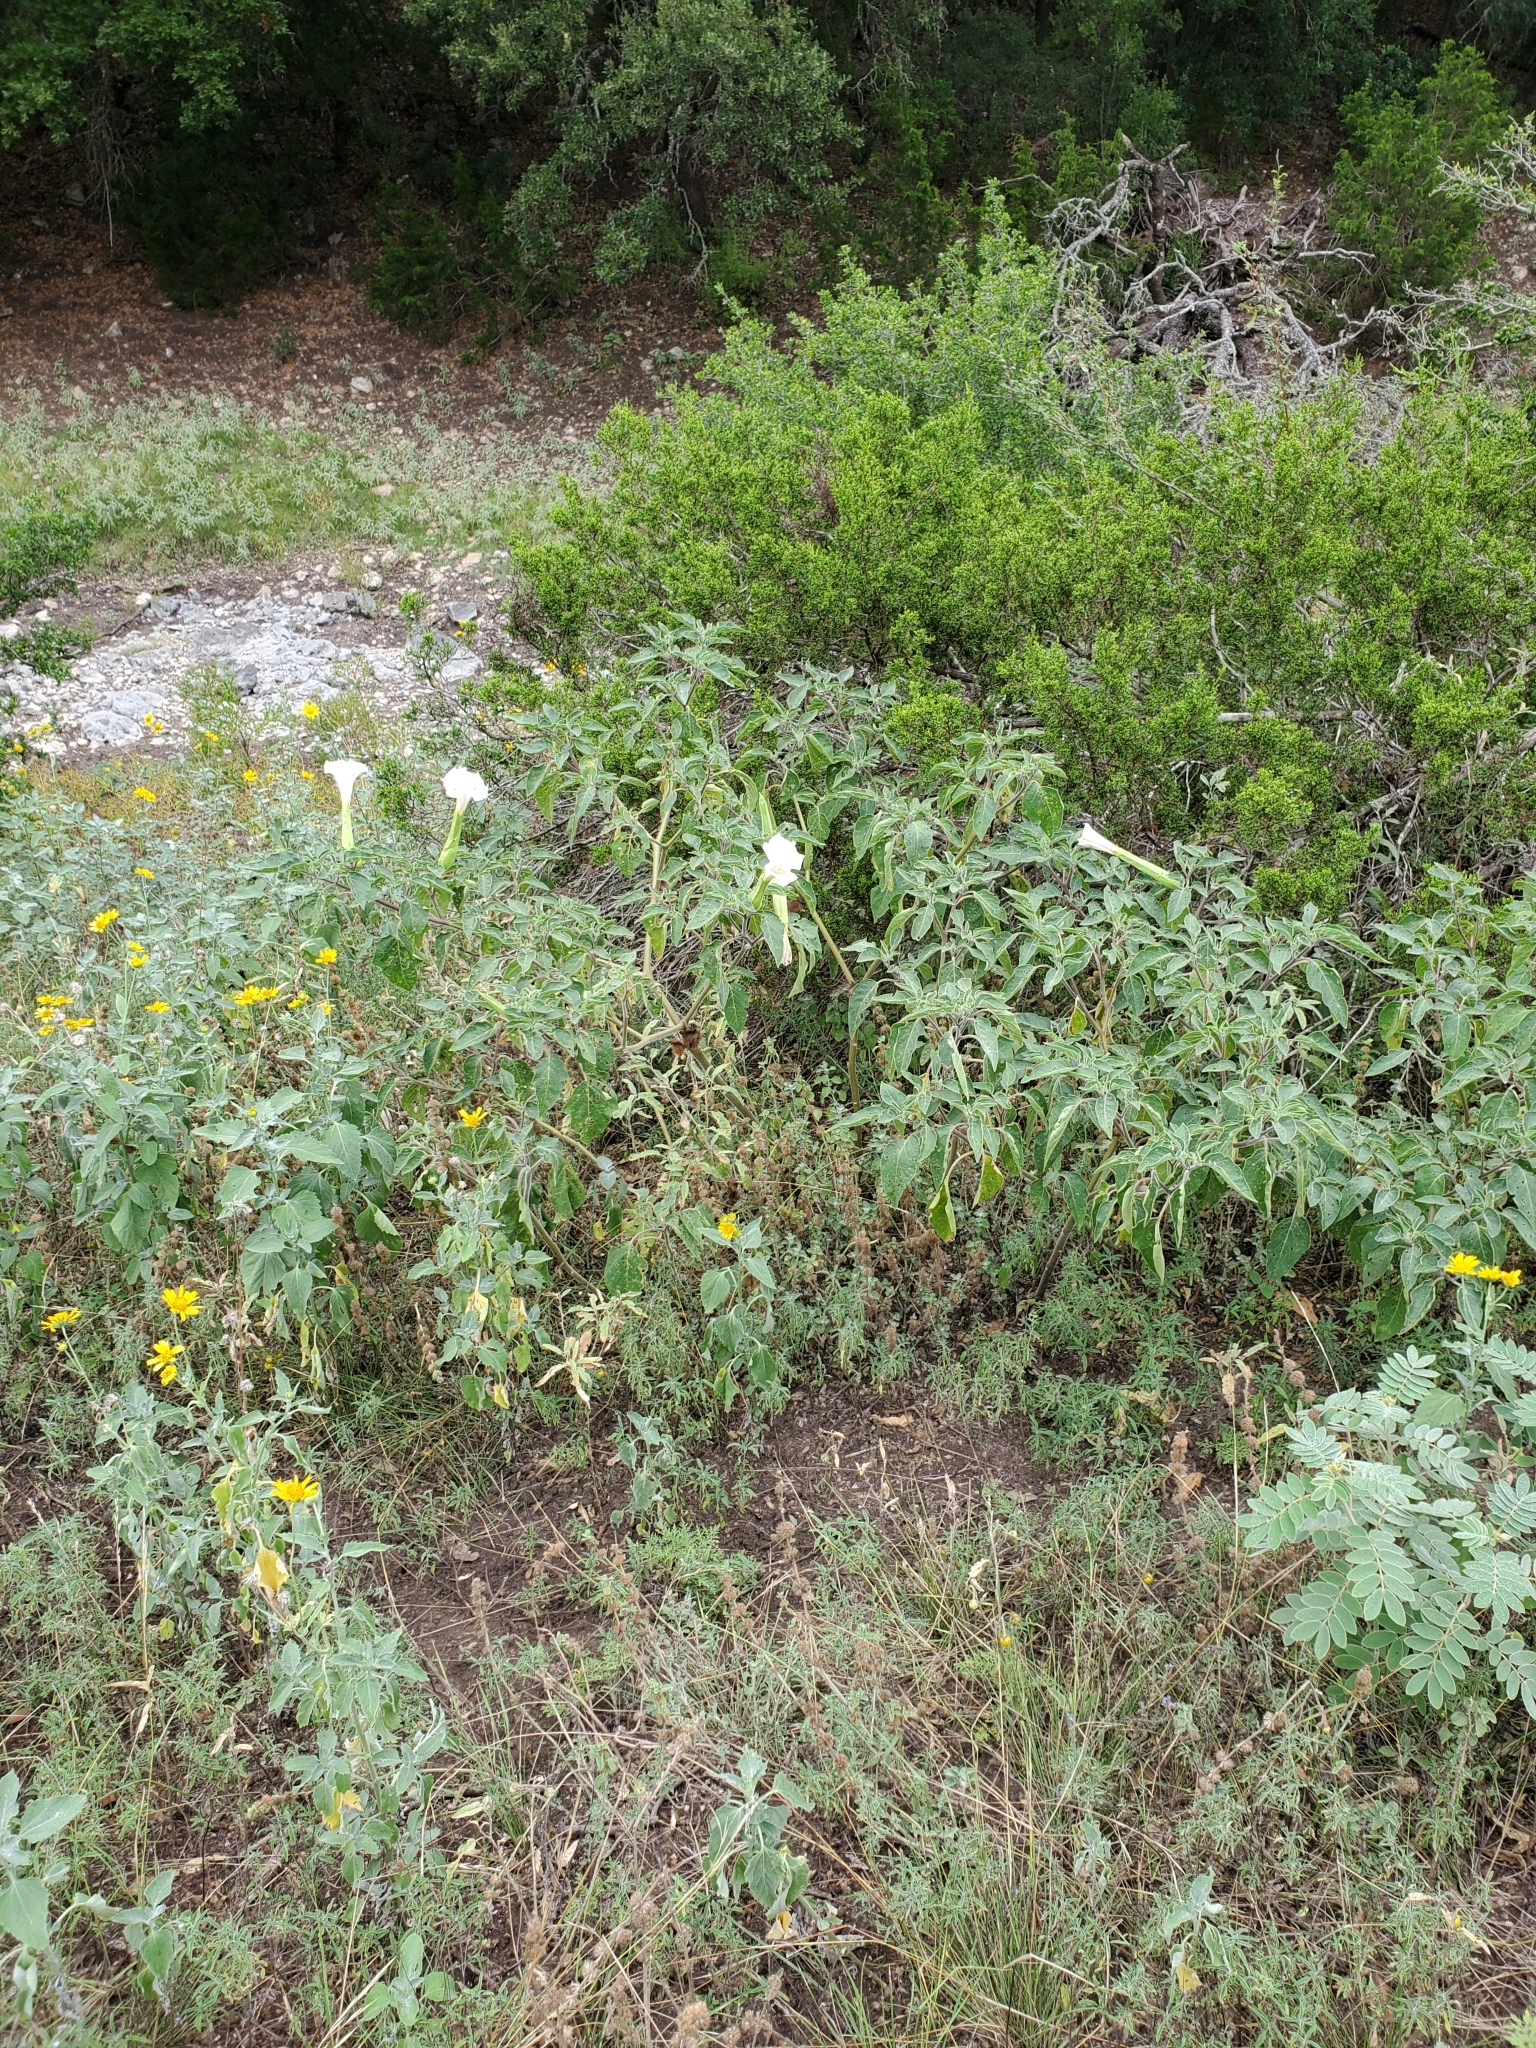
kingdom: Plantae
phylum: Tracheophyta
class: Magnoliopsida
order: Solanales
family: Solanaceae
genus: Datura
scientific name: Datura innoxia
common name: Downy thorn-apple
